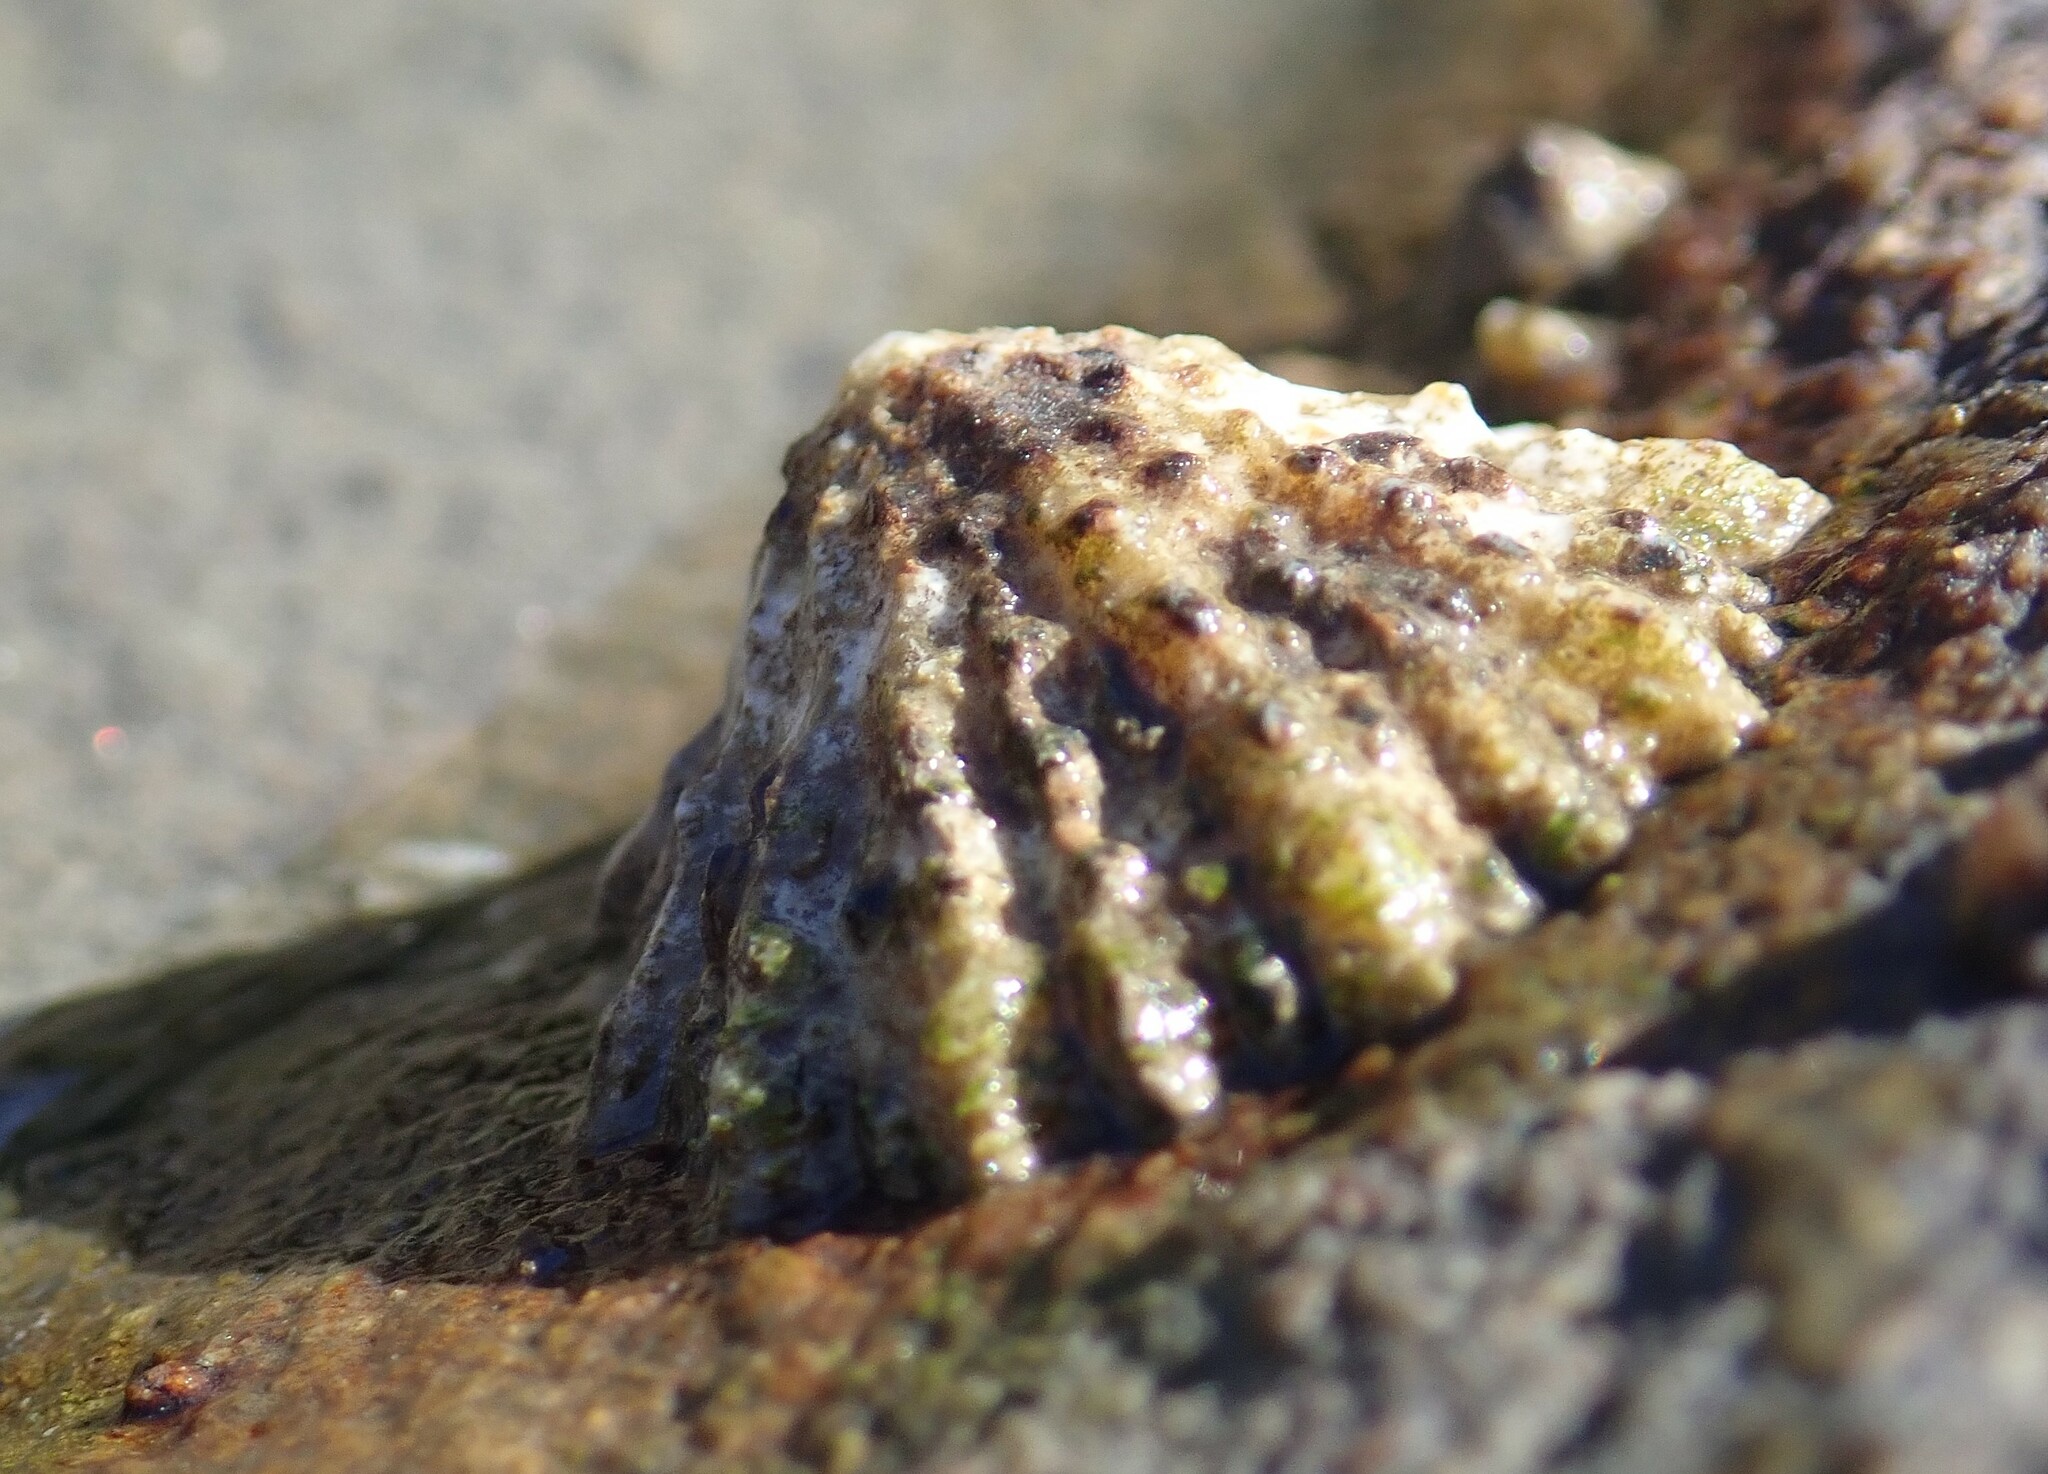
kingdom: Animalia
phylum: Mollusca
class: Gastropoda
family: Lottiidae
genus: Lottia
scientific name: Lottia scabra
